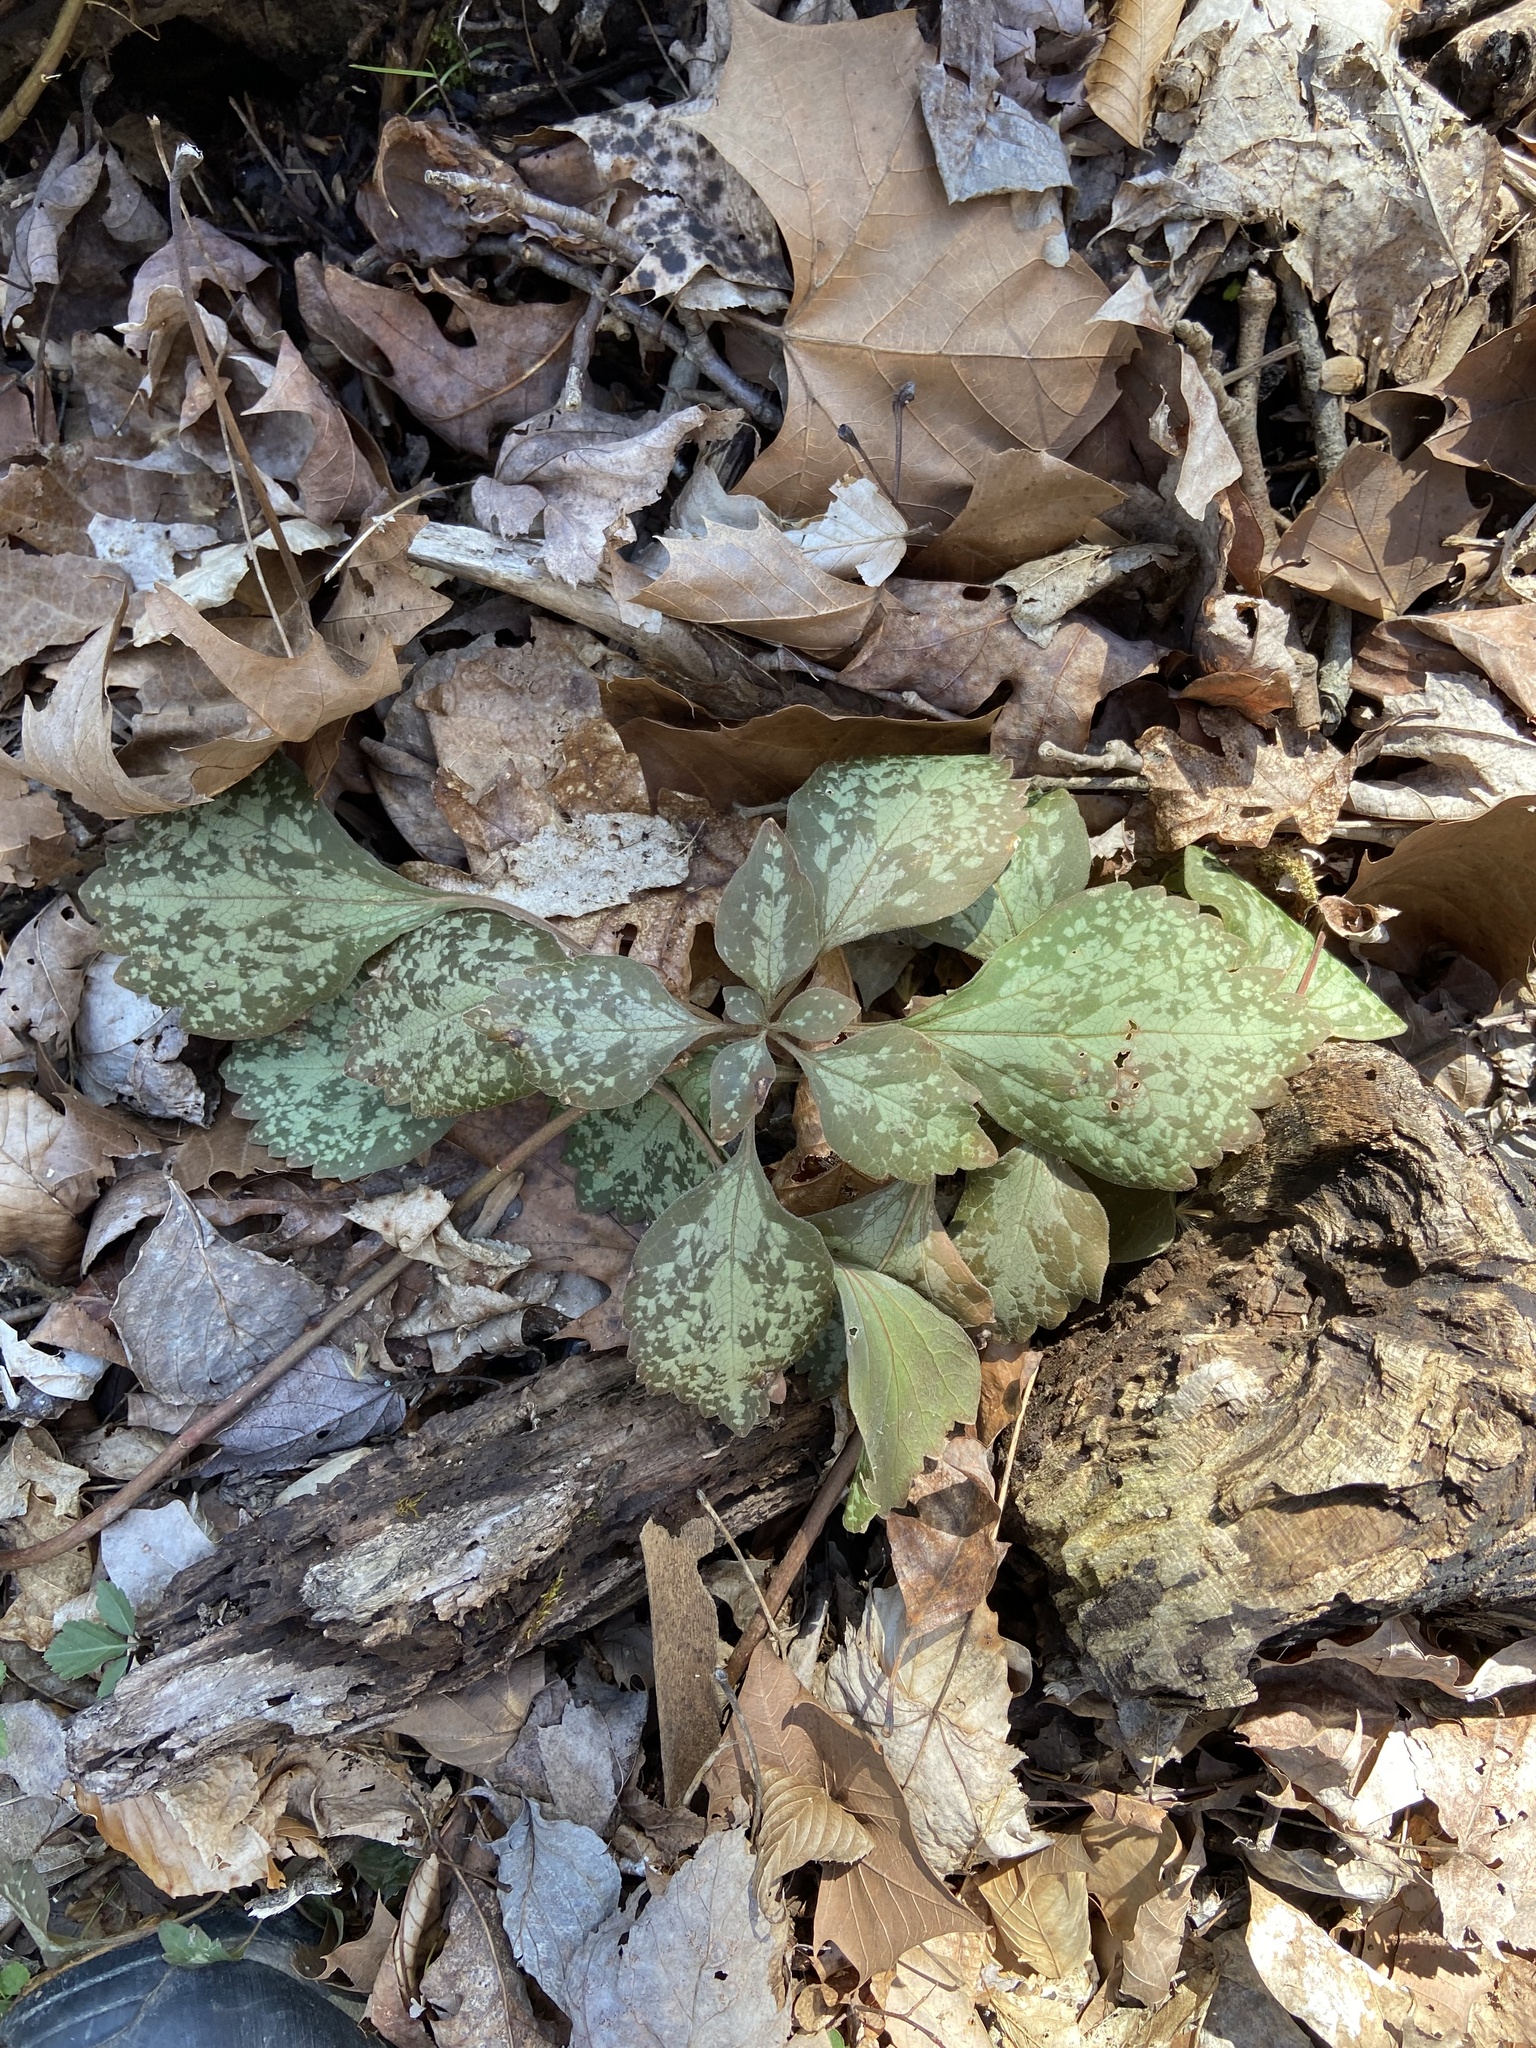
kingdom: Plantae
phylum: Tracheophyta
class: Magnoliopsida
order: Buxales
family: Buxaceae
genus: Pachysandra
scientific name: Pachysandra procumbens
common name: Mountain-spurge
